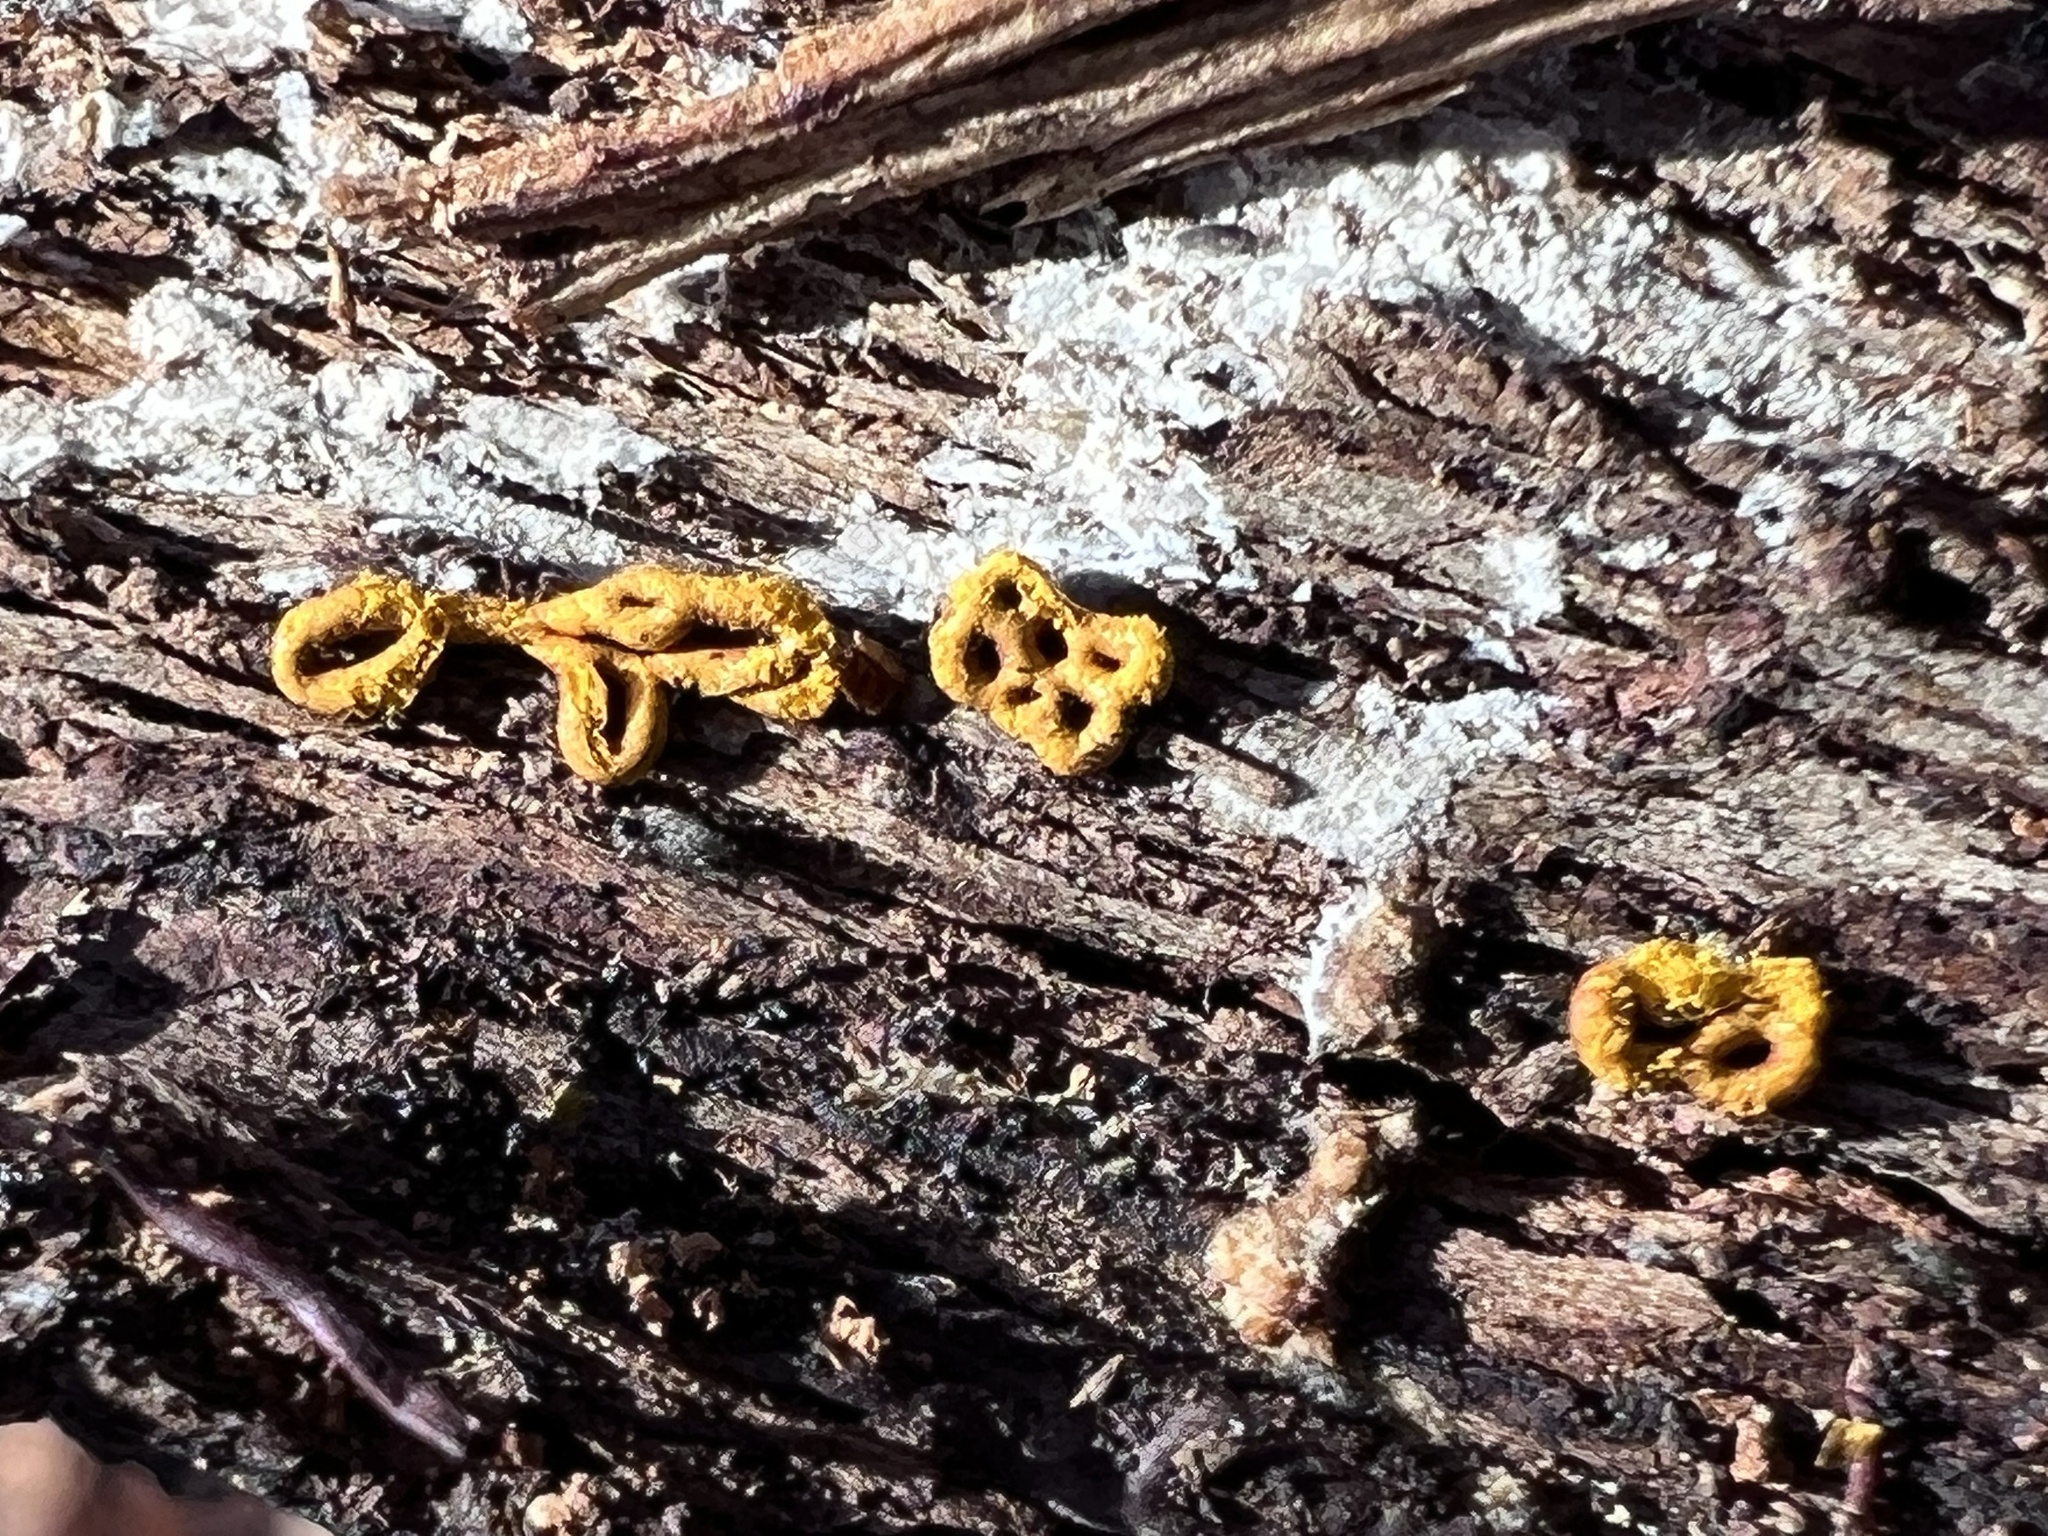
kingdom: Protozoa
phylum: Mycetozoa
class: Myxomycetes
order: Trichiales
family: Arcyriaceae
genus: Hemitrichia
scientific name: Hemitrichia serpula
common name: Pretzel slime mold
